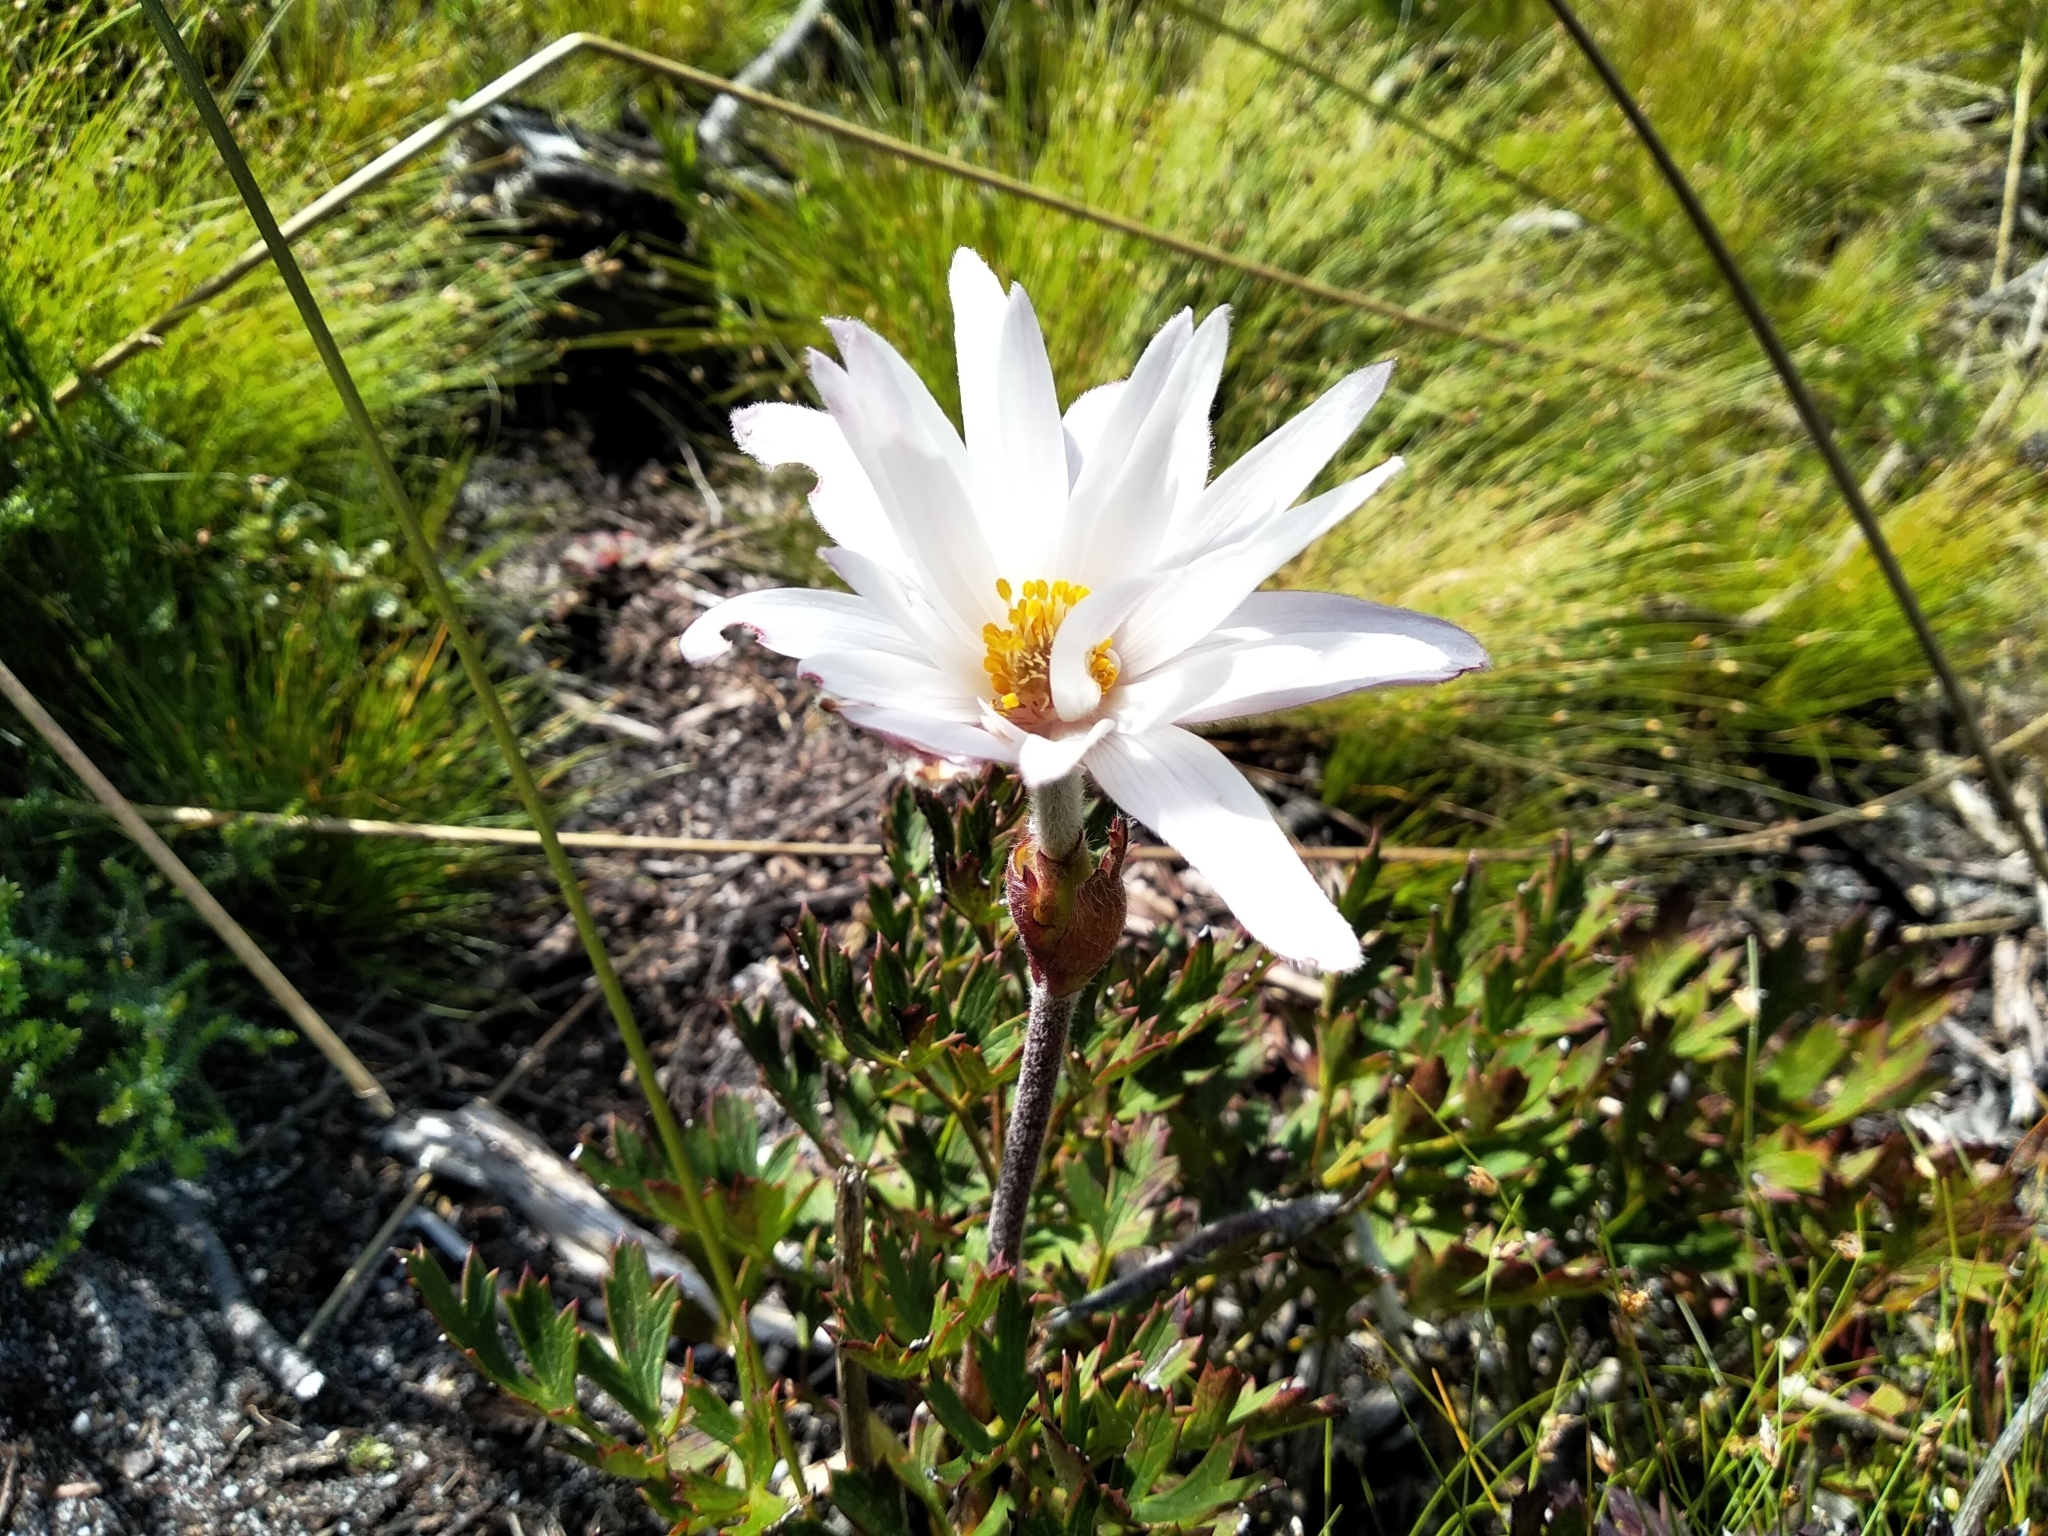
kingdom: Plantae
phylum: Tracheophyta
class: Magnoliopsida
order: Ranunculales
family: Ranunculaceae
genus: Knowltonia
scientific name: Knowltonia tenuifolia
